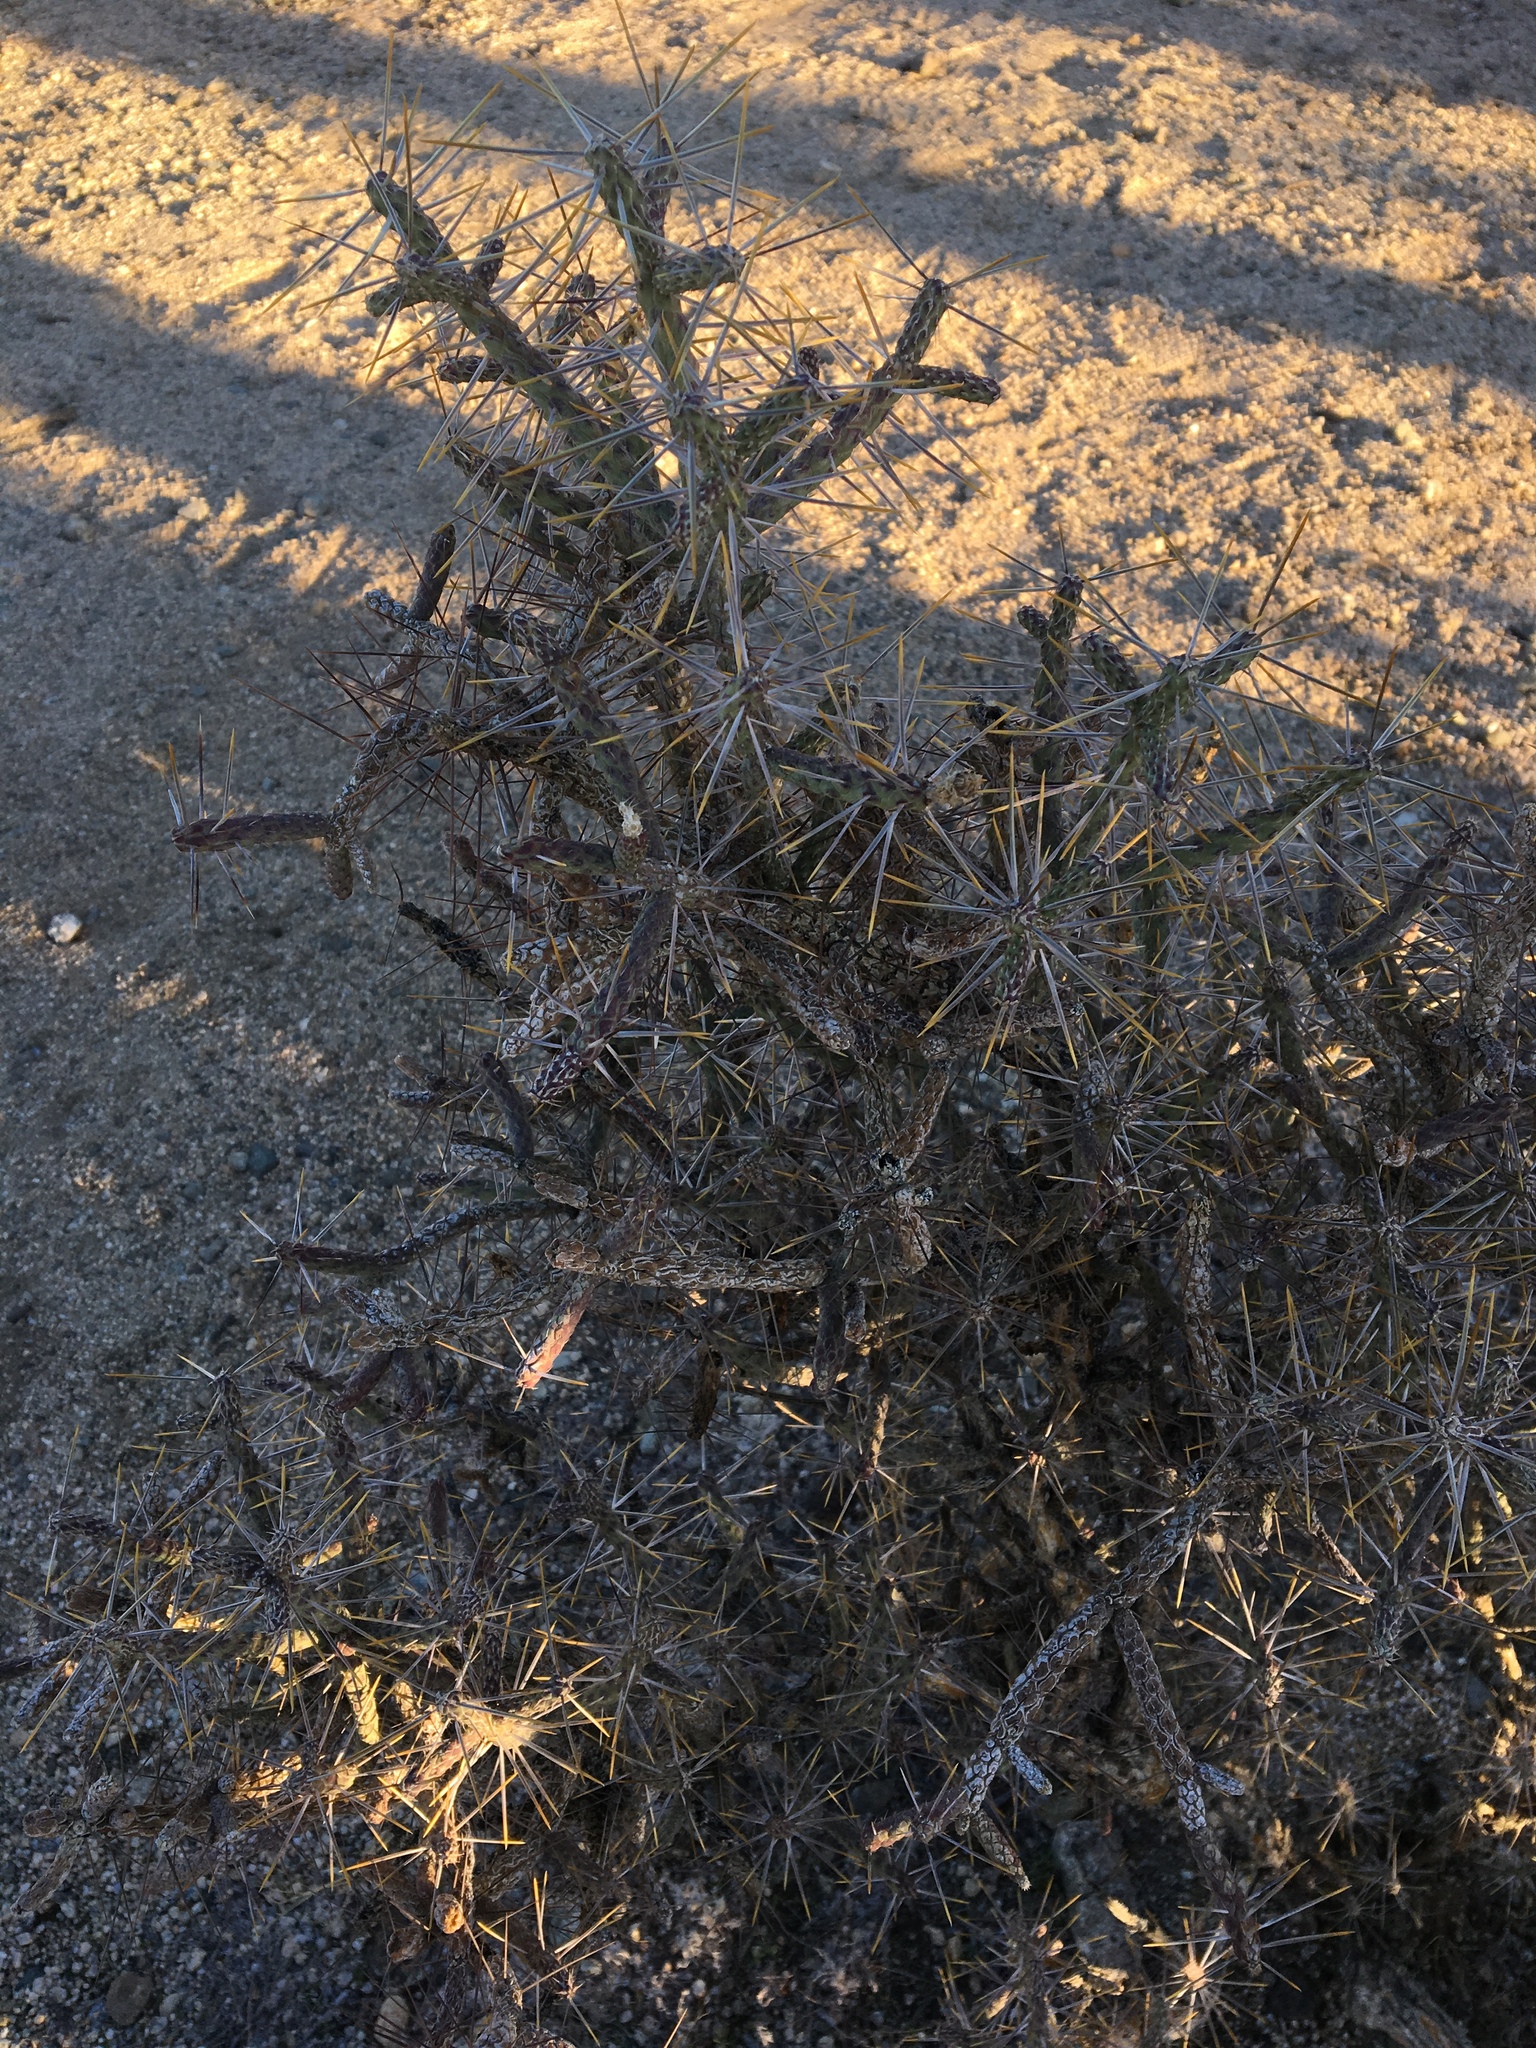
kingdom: Plantae
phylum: Tracheophyta
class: Magnoliopsida
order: Caryophyllales
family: Cactaceae
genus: Cylindropuntia
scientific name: Cylindropuntia ramosissima
